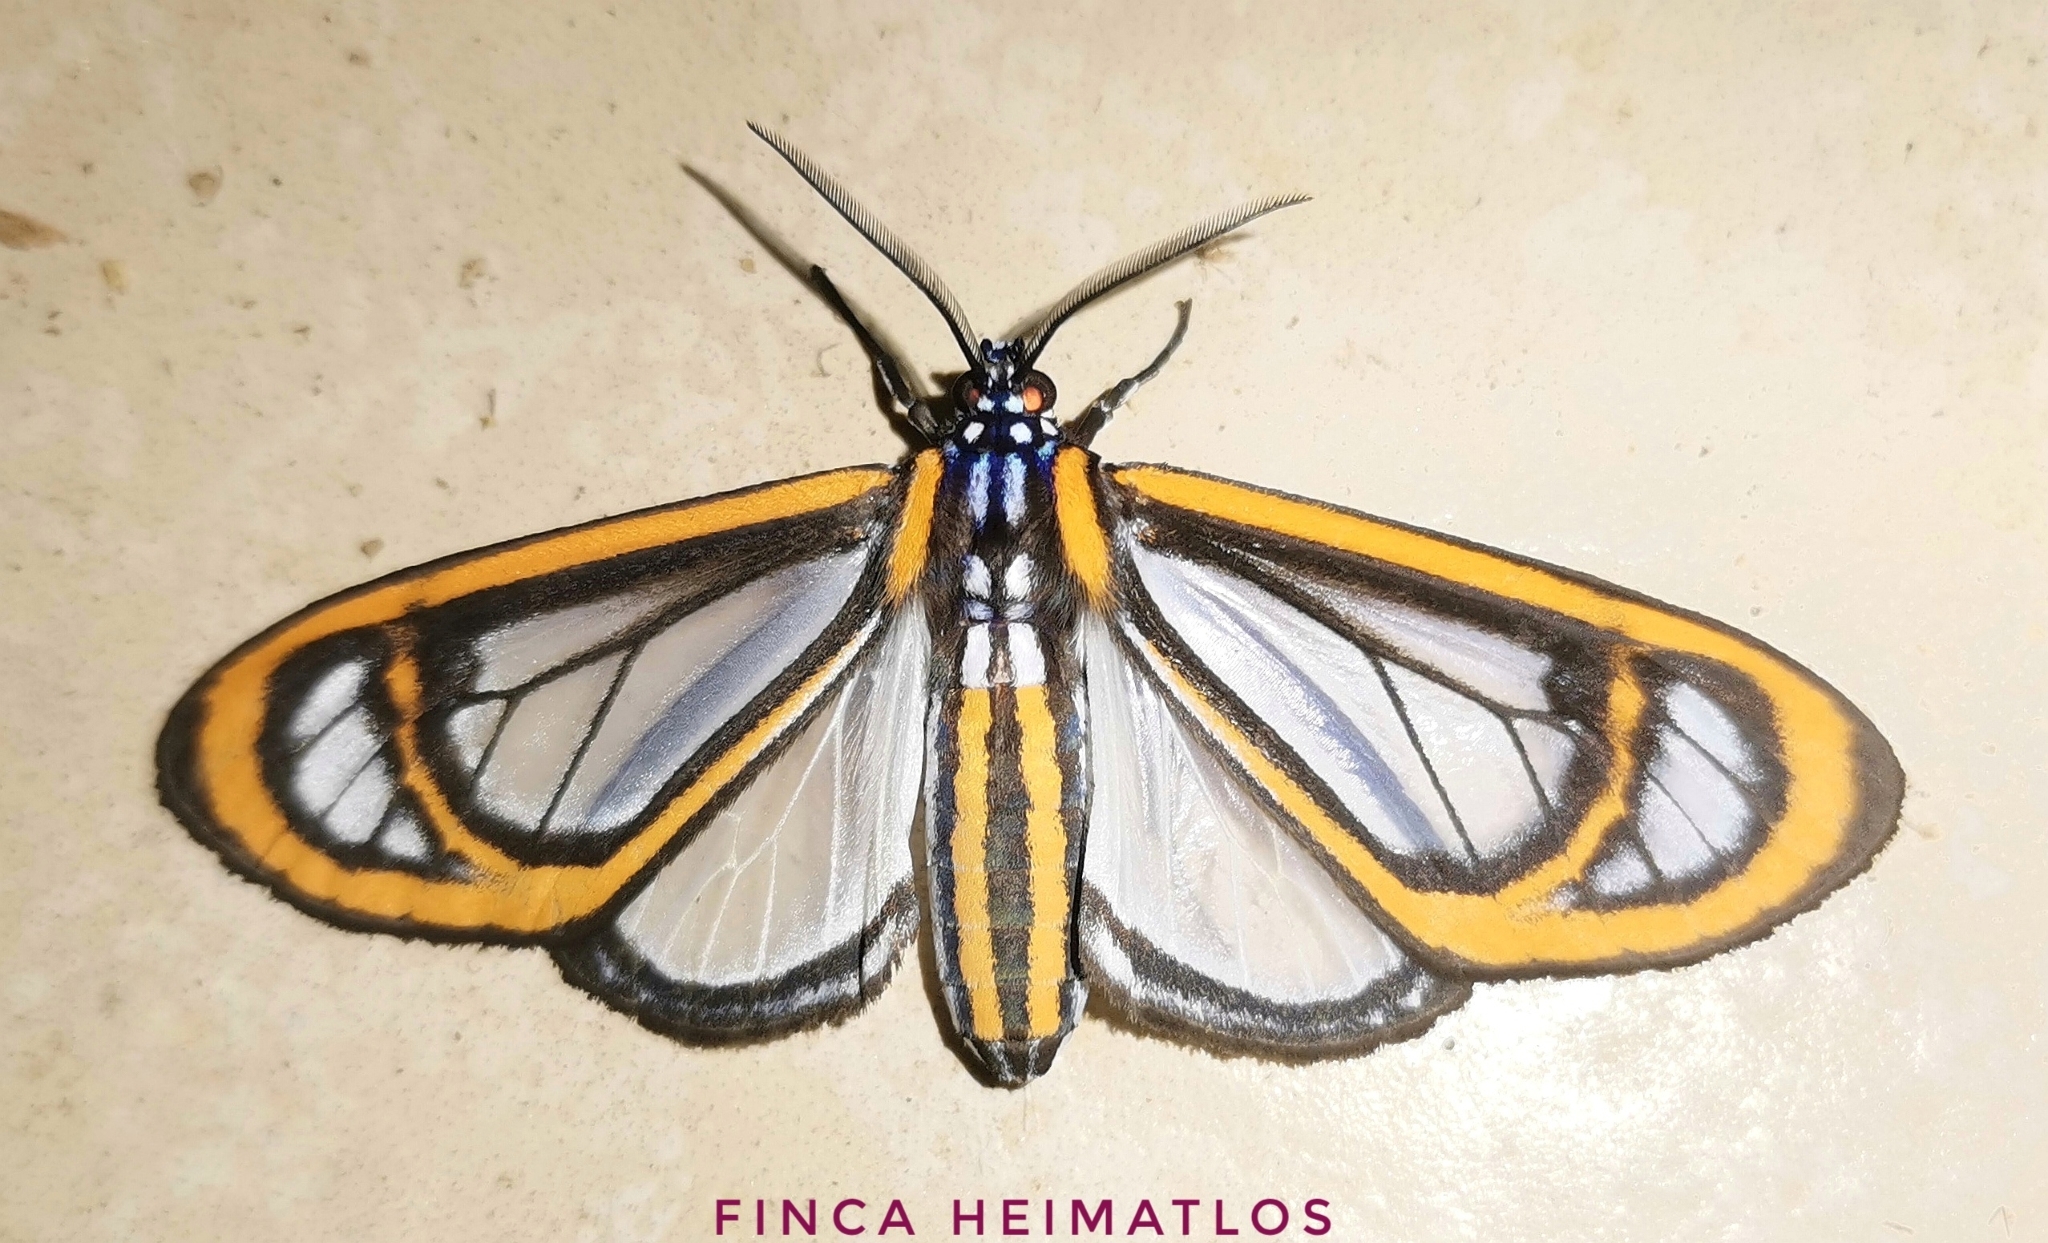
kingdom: Animalia
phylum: Arthropoda
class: Insecta
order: Lepidoptera
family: Erebidae
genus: Hyalurga
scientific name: Hyalurga fenestra
